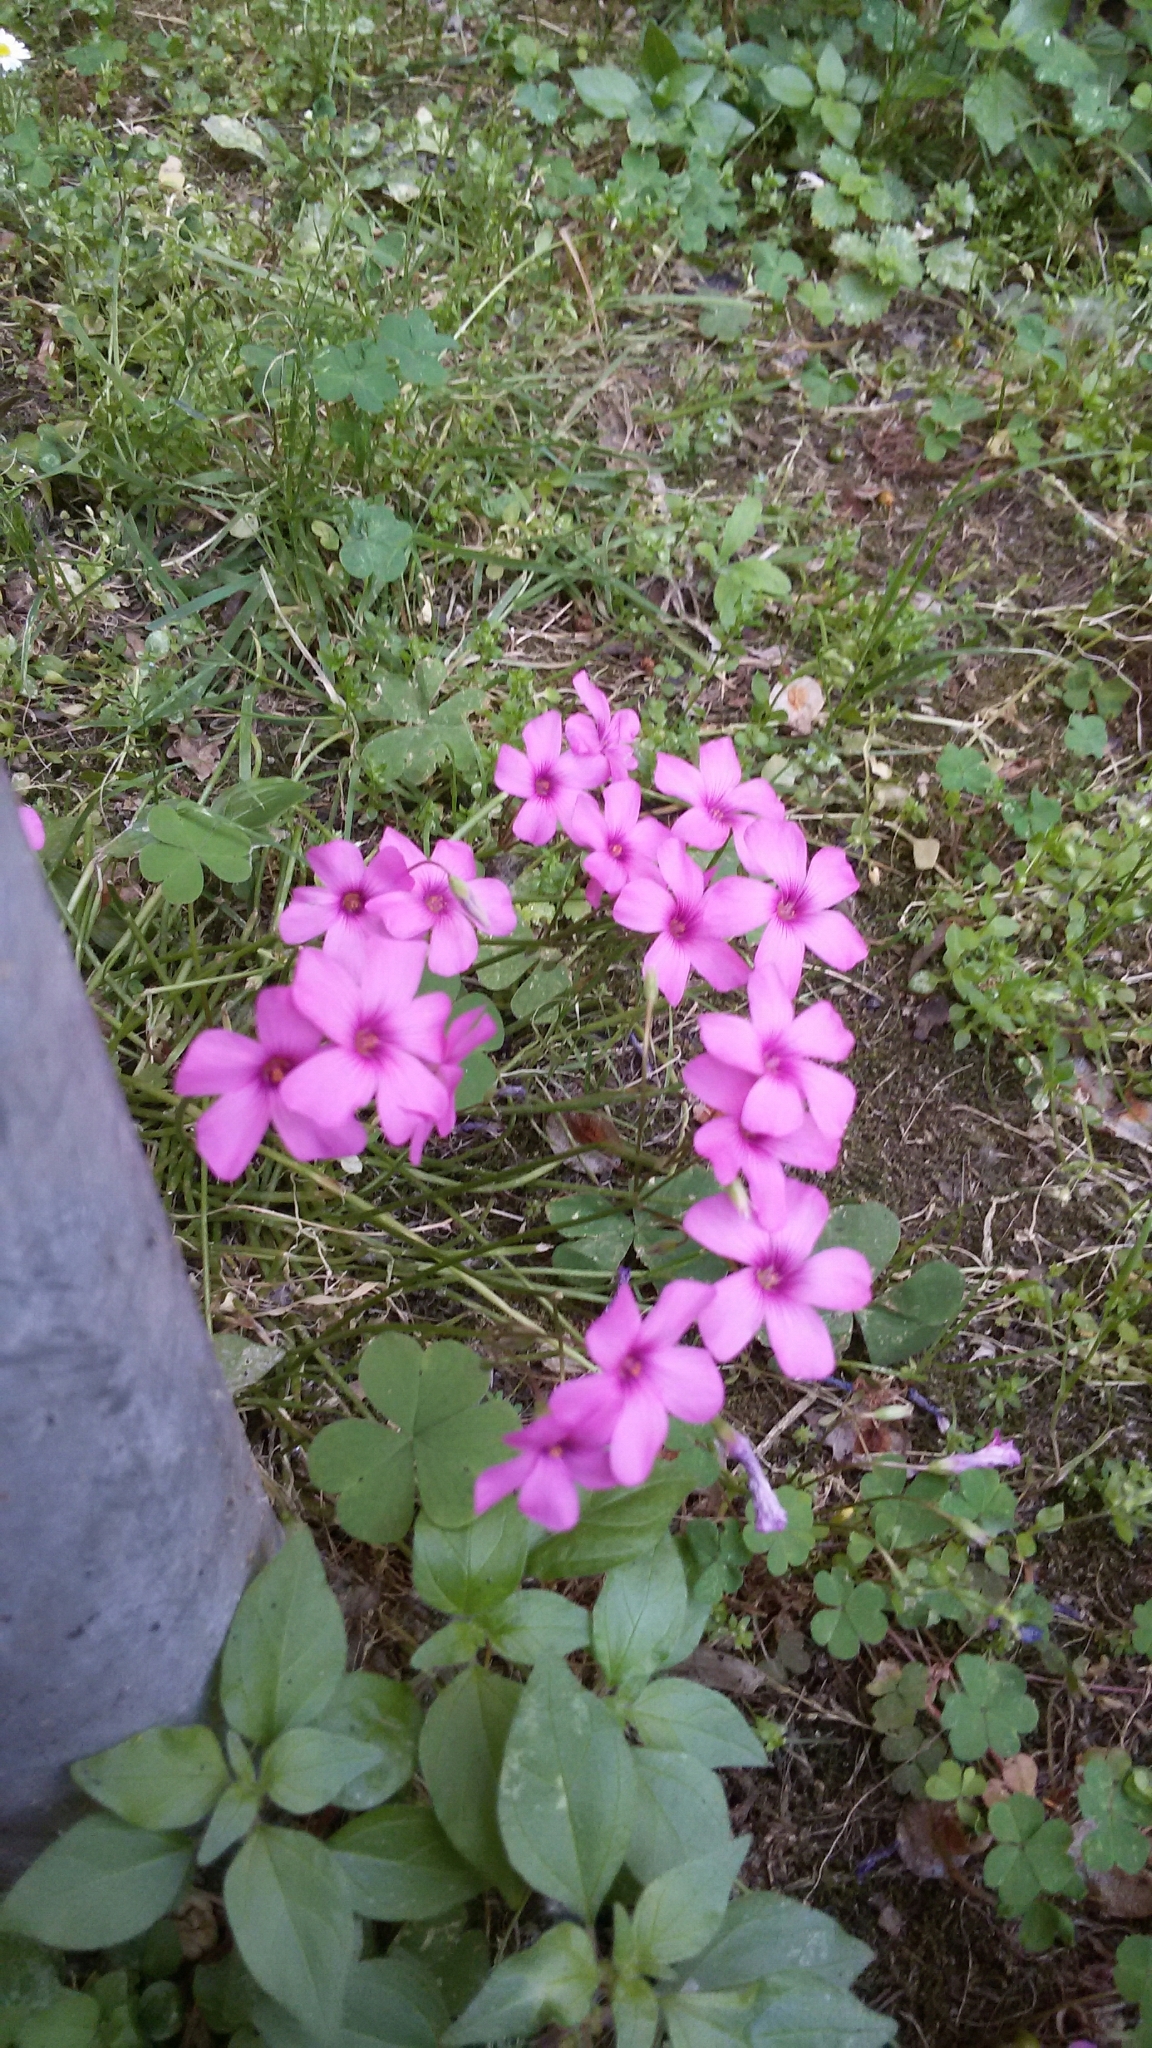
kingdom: Plantae
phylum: Tracheophyta
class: Magnoliopsida
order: Oxalidales
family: Oxalidaceae
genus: Oxalis
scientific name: Oxalis articulata
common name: Pink-sorrel
